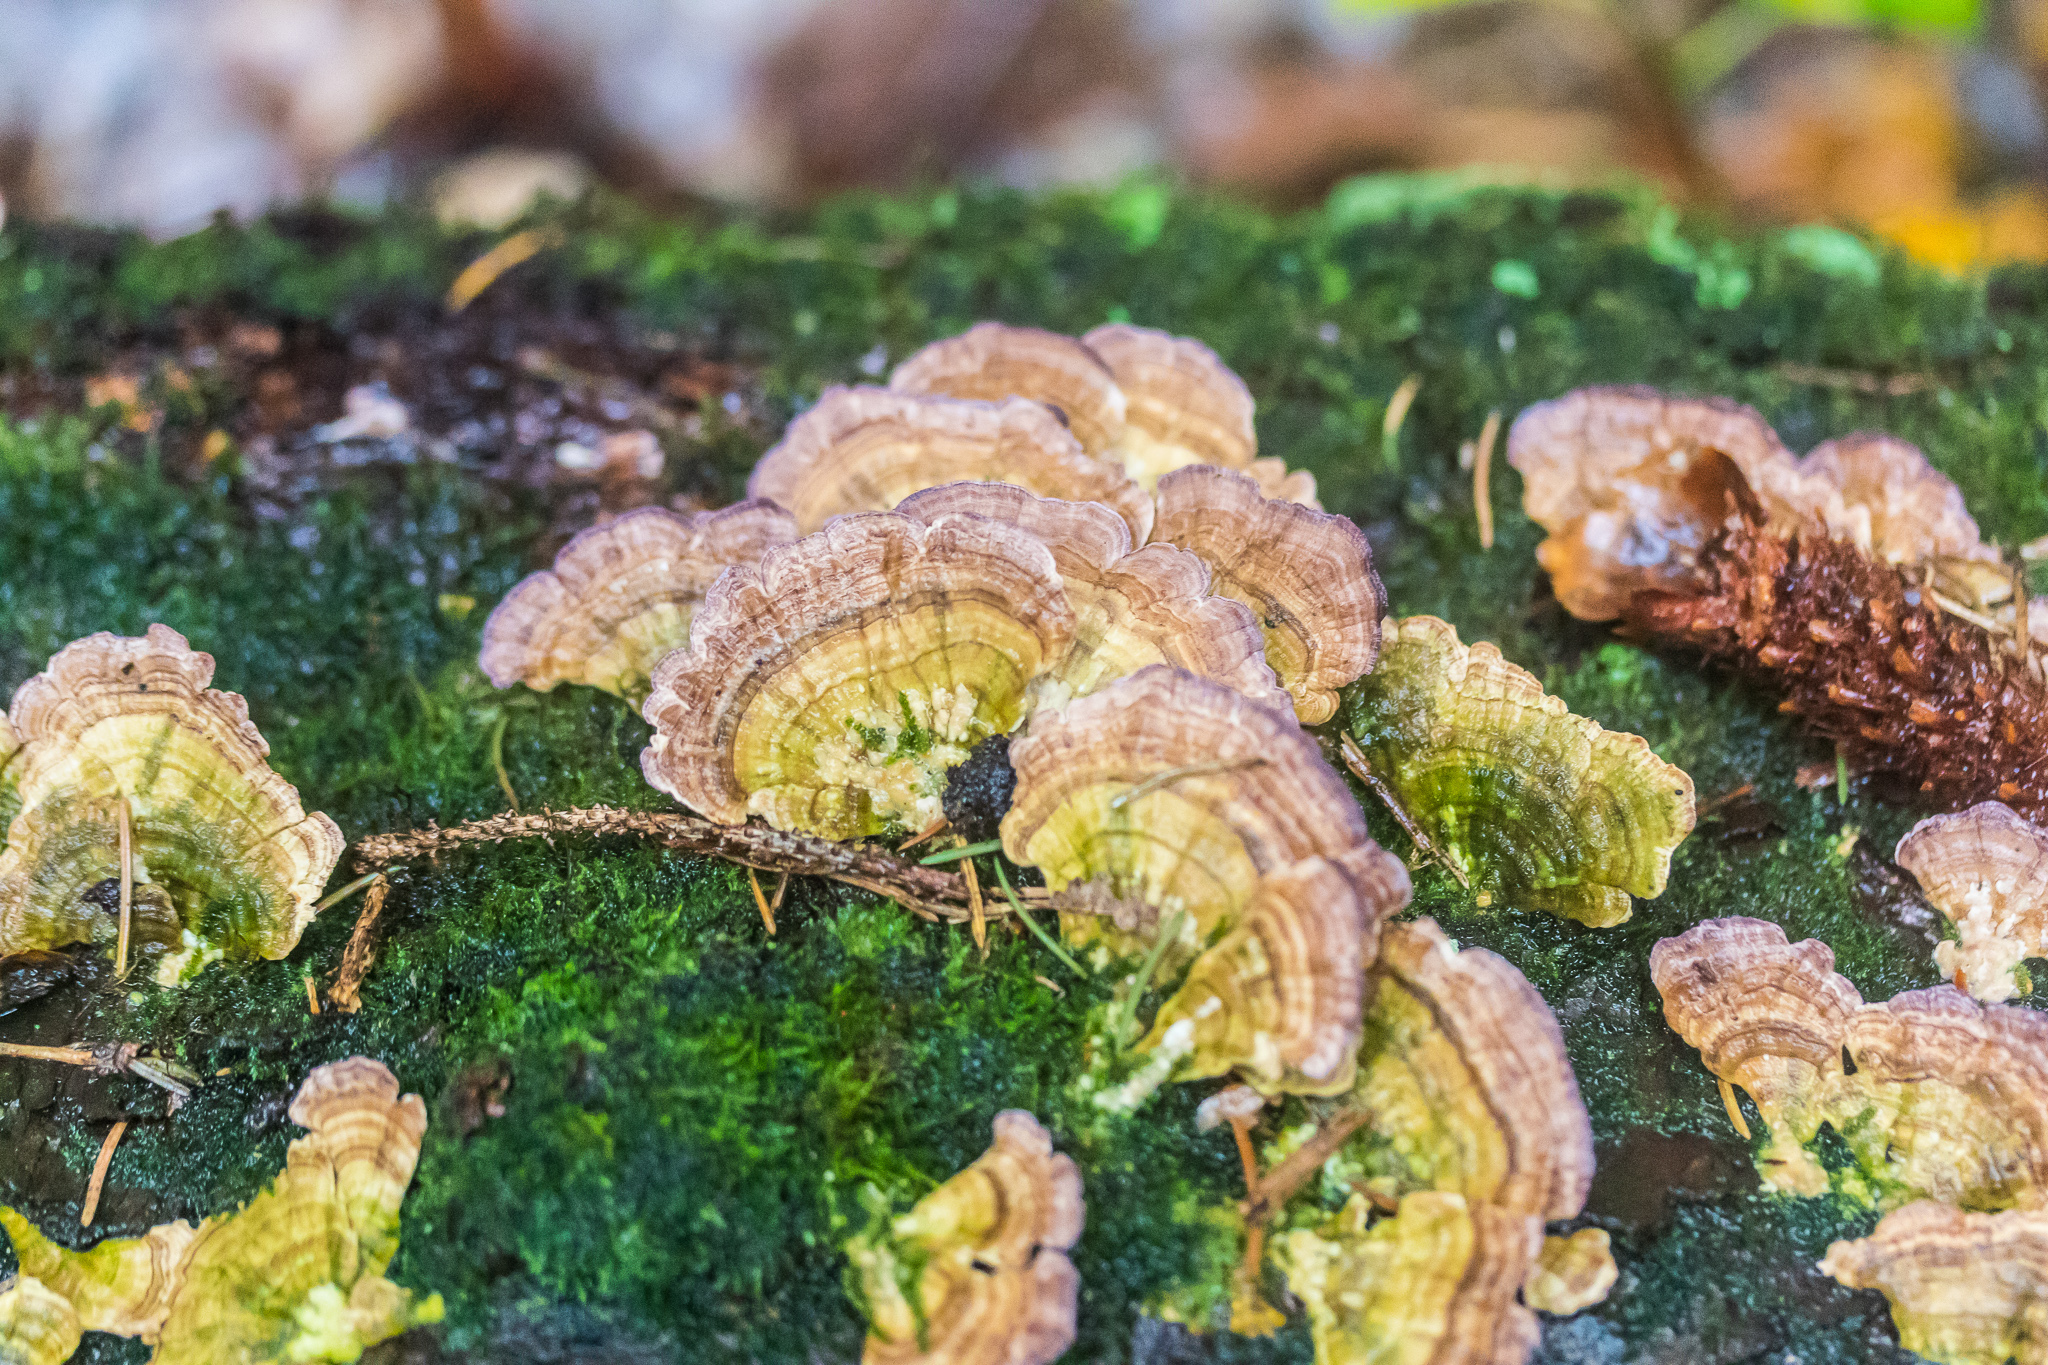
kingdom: Fungi
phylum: Basidiomycota
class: Agaricomycetes
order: Hymenochaetales
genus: Trichaptum
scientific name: Trichaptum biforme
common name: Violet-toothed polypore
